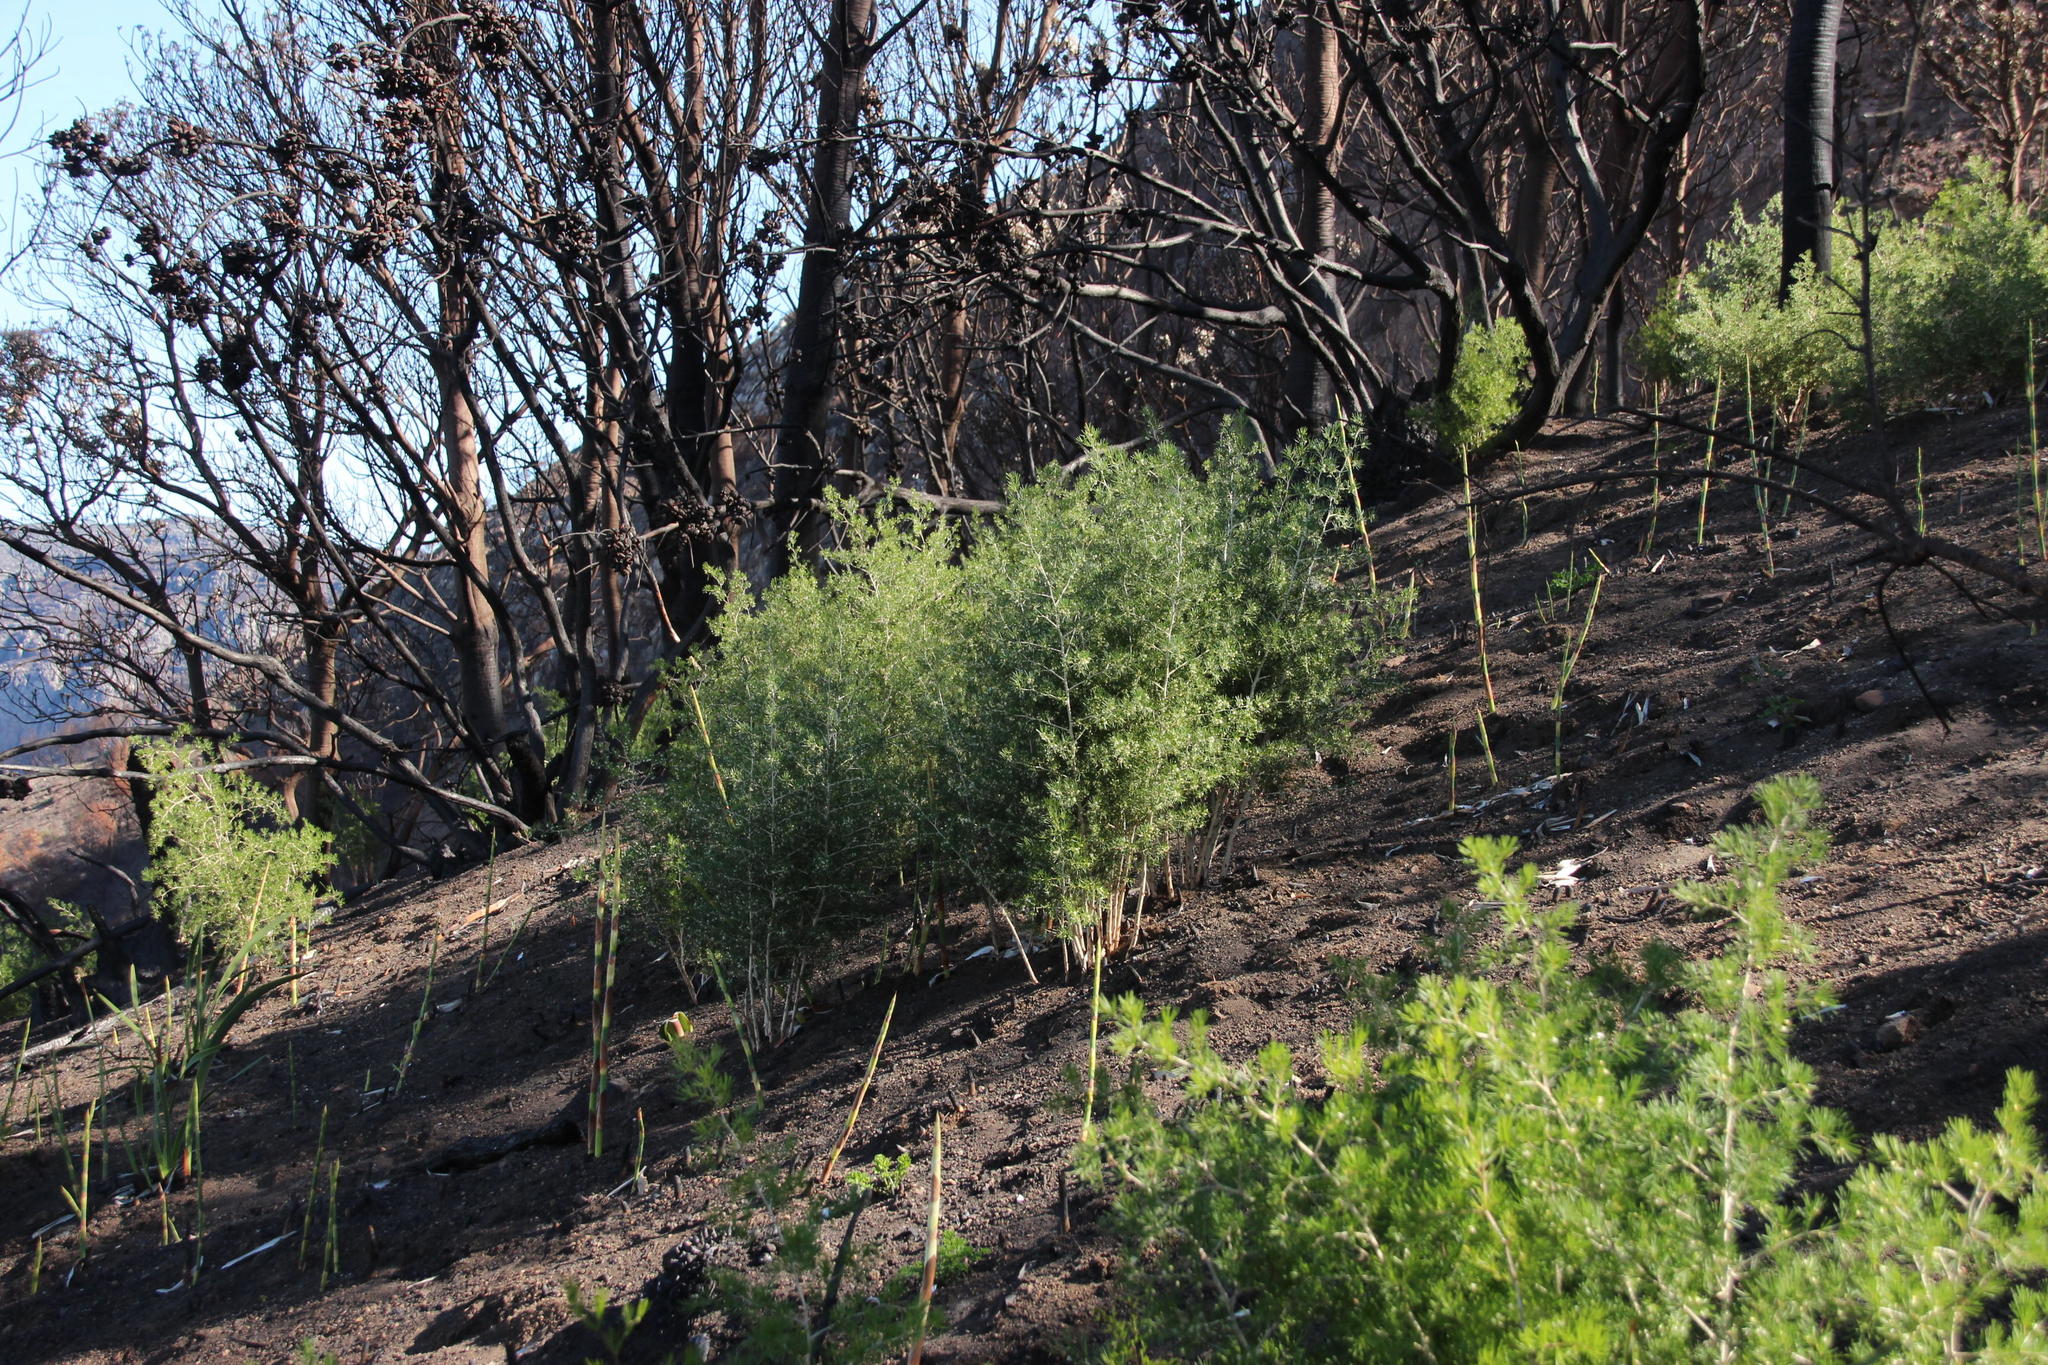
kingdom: Plantae
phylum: Tracheophyta
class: Liliopsida
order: Poales
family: Restionaceae
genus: Cannomois
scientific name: Cannomois virgata
